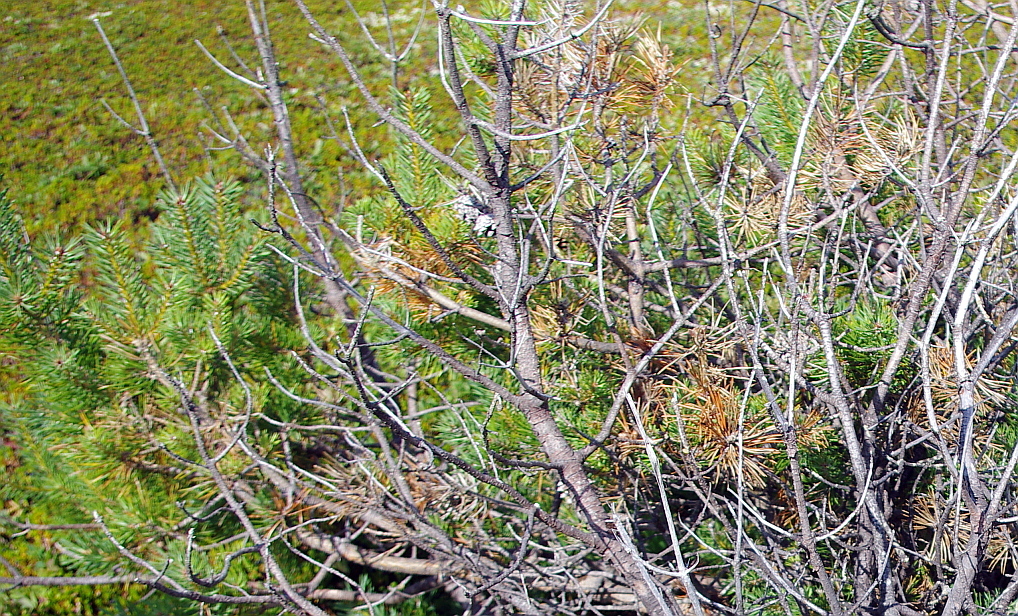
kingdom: Plantae
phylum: Tracheophyta
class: Pinopsida
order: Pinales
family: Pinaceae
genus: Pinus
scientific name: Pinus sylvestris
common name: Scots pine
